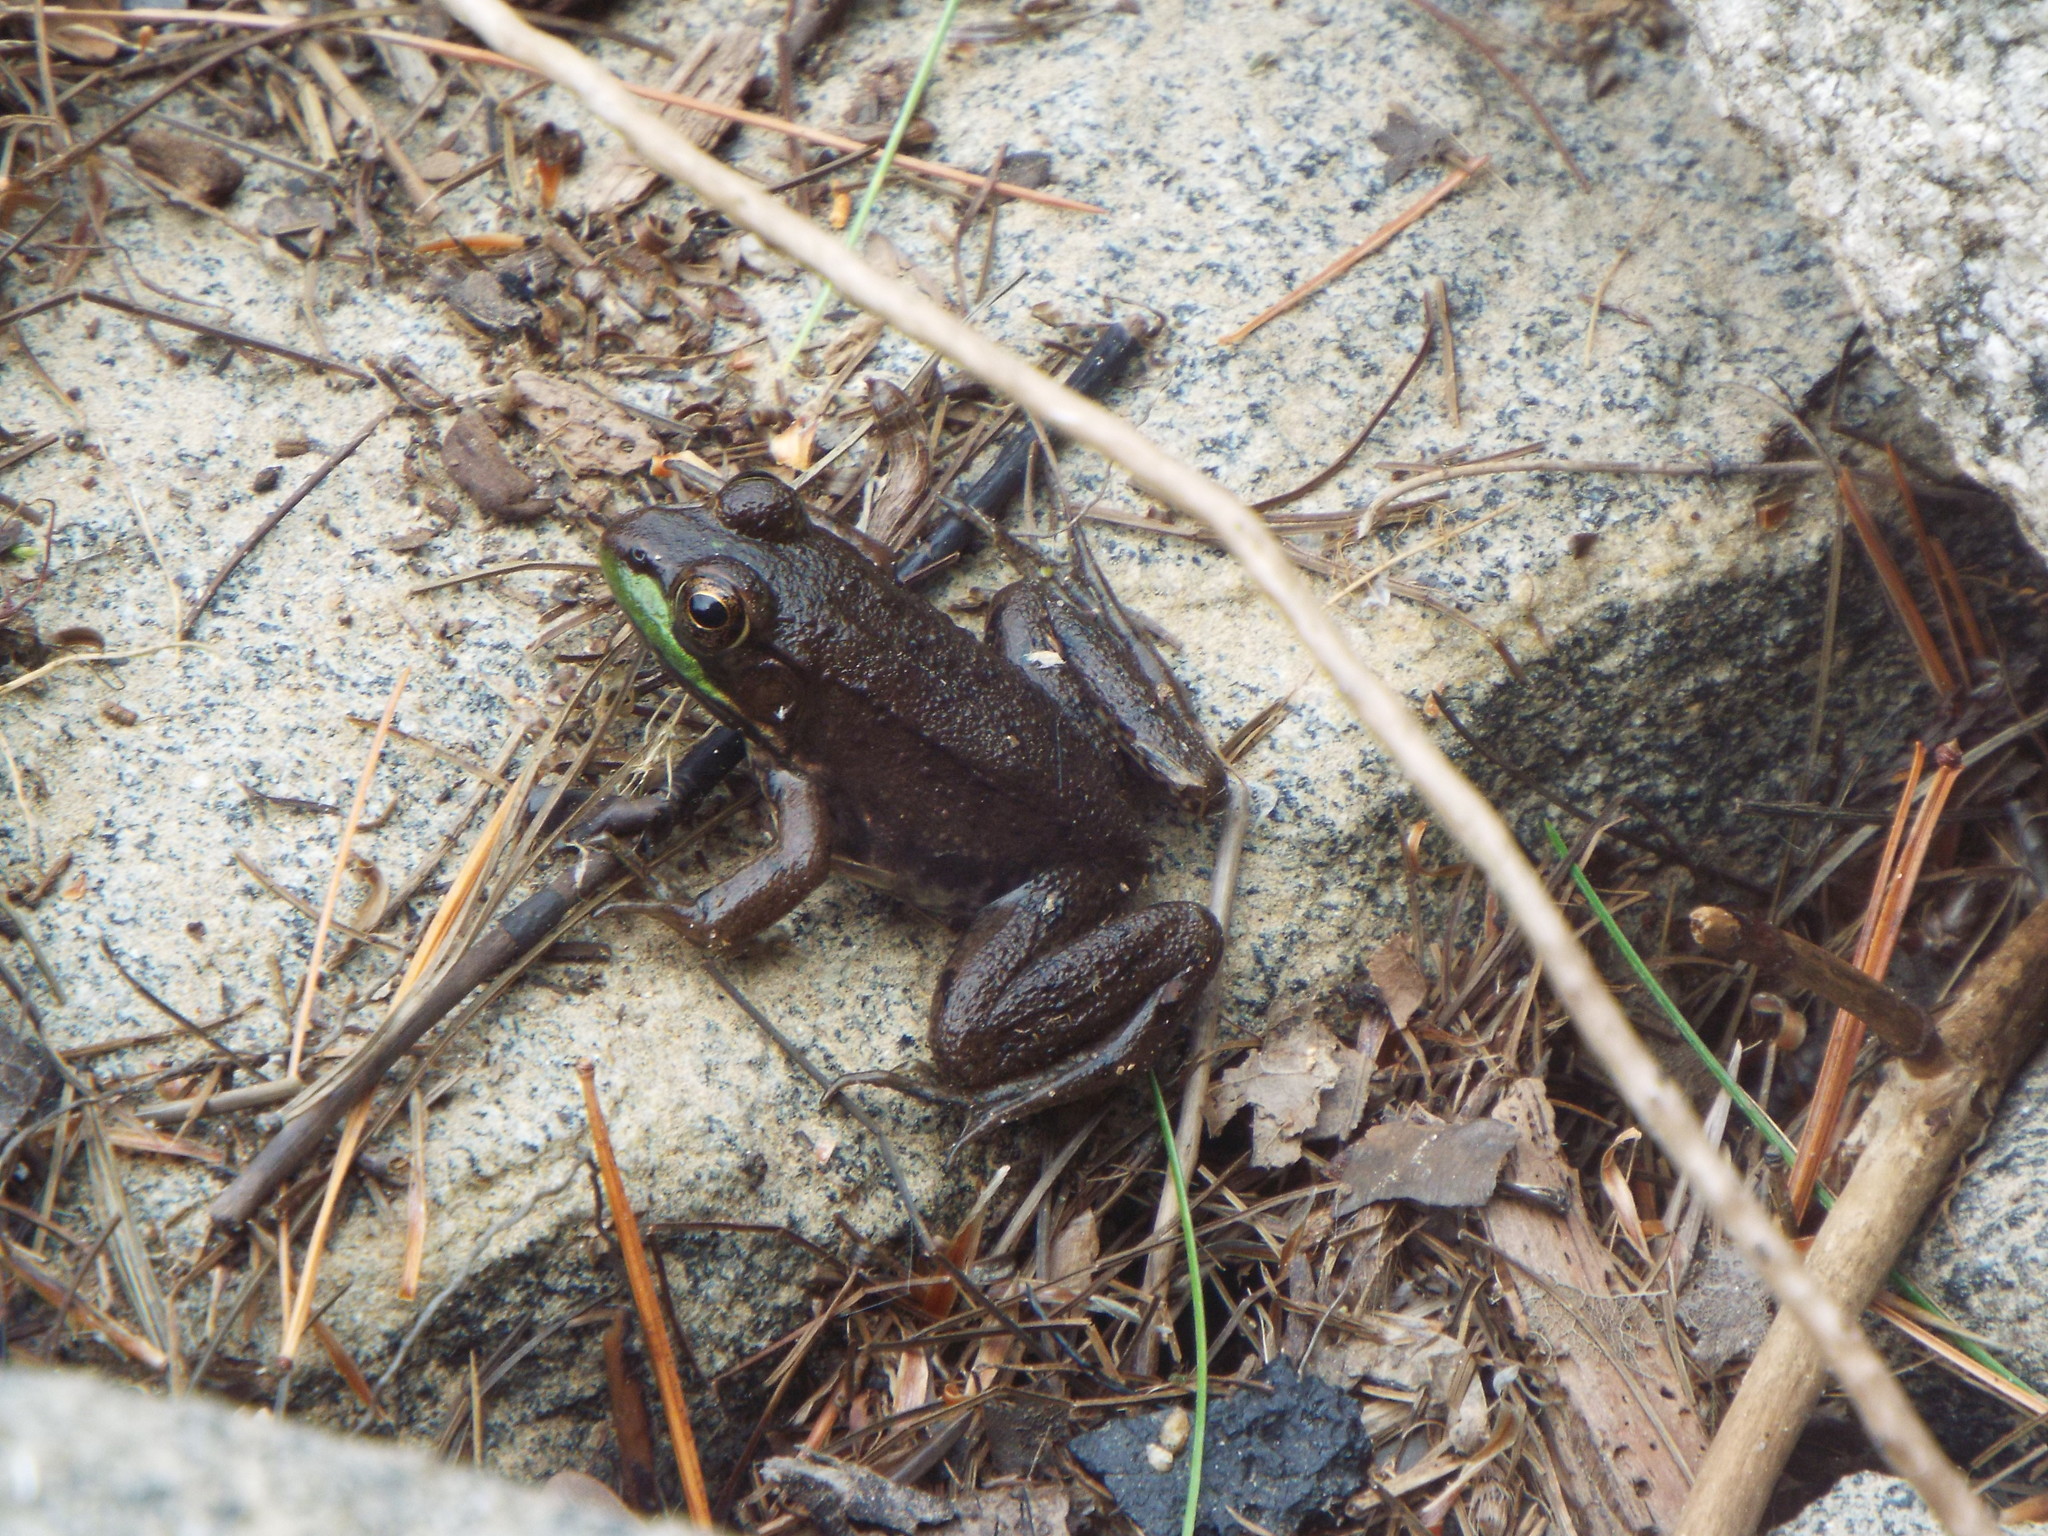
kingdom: Animalia
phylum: Chordata
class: Amphibia
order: Anura
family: Ranidae
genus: Lithobates
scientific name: Lithobates clamitans
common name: Green frog
